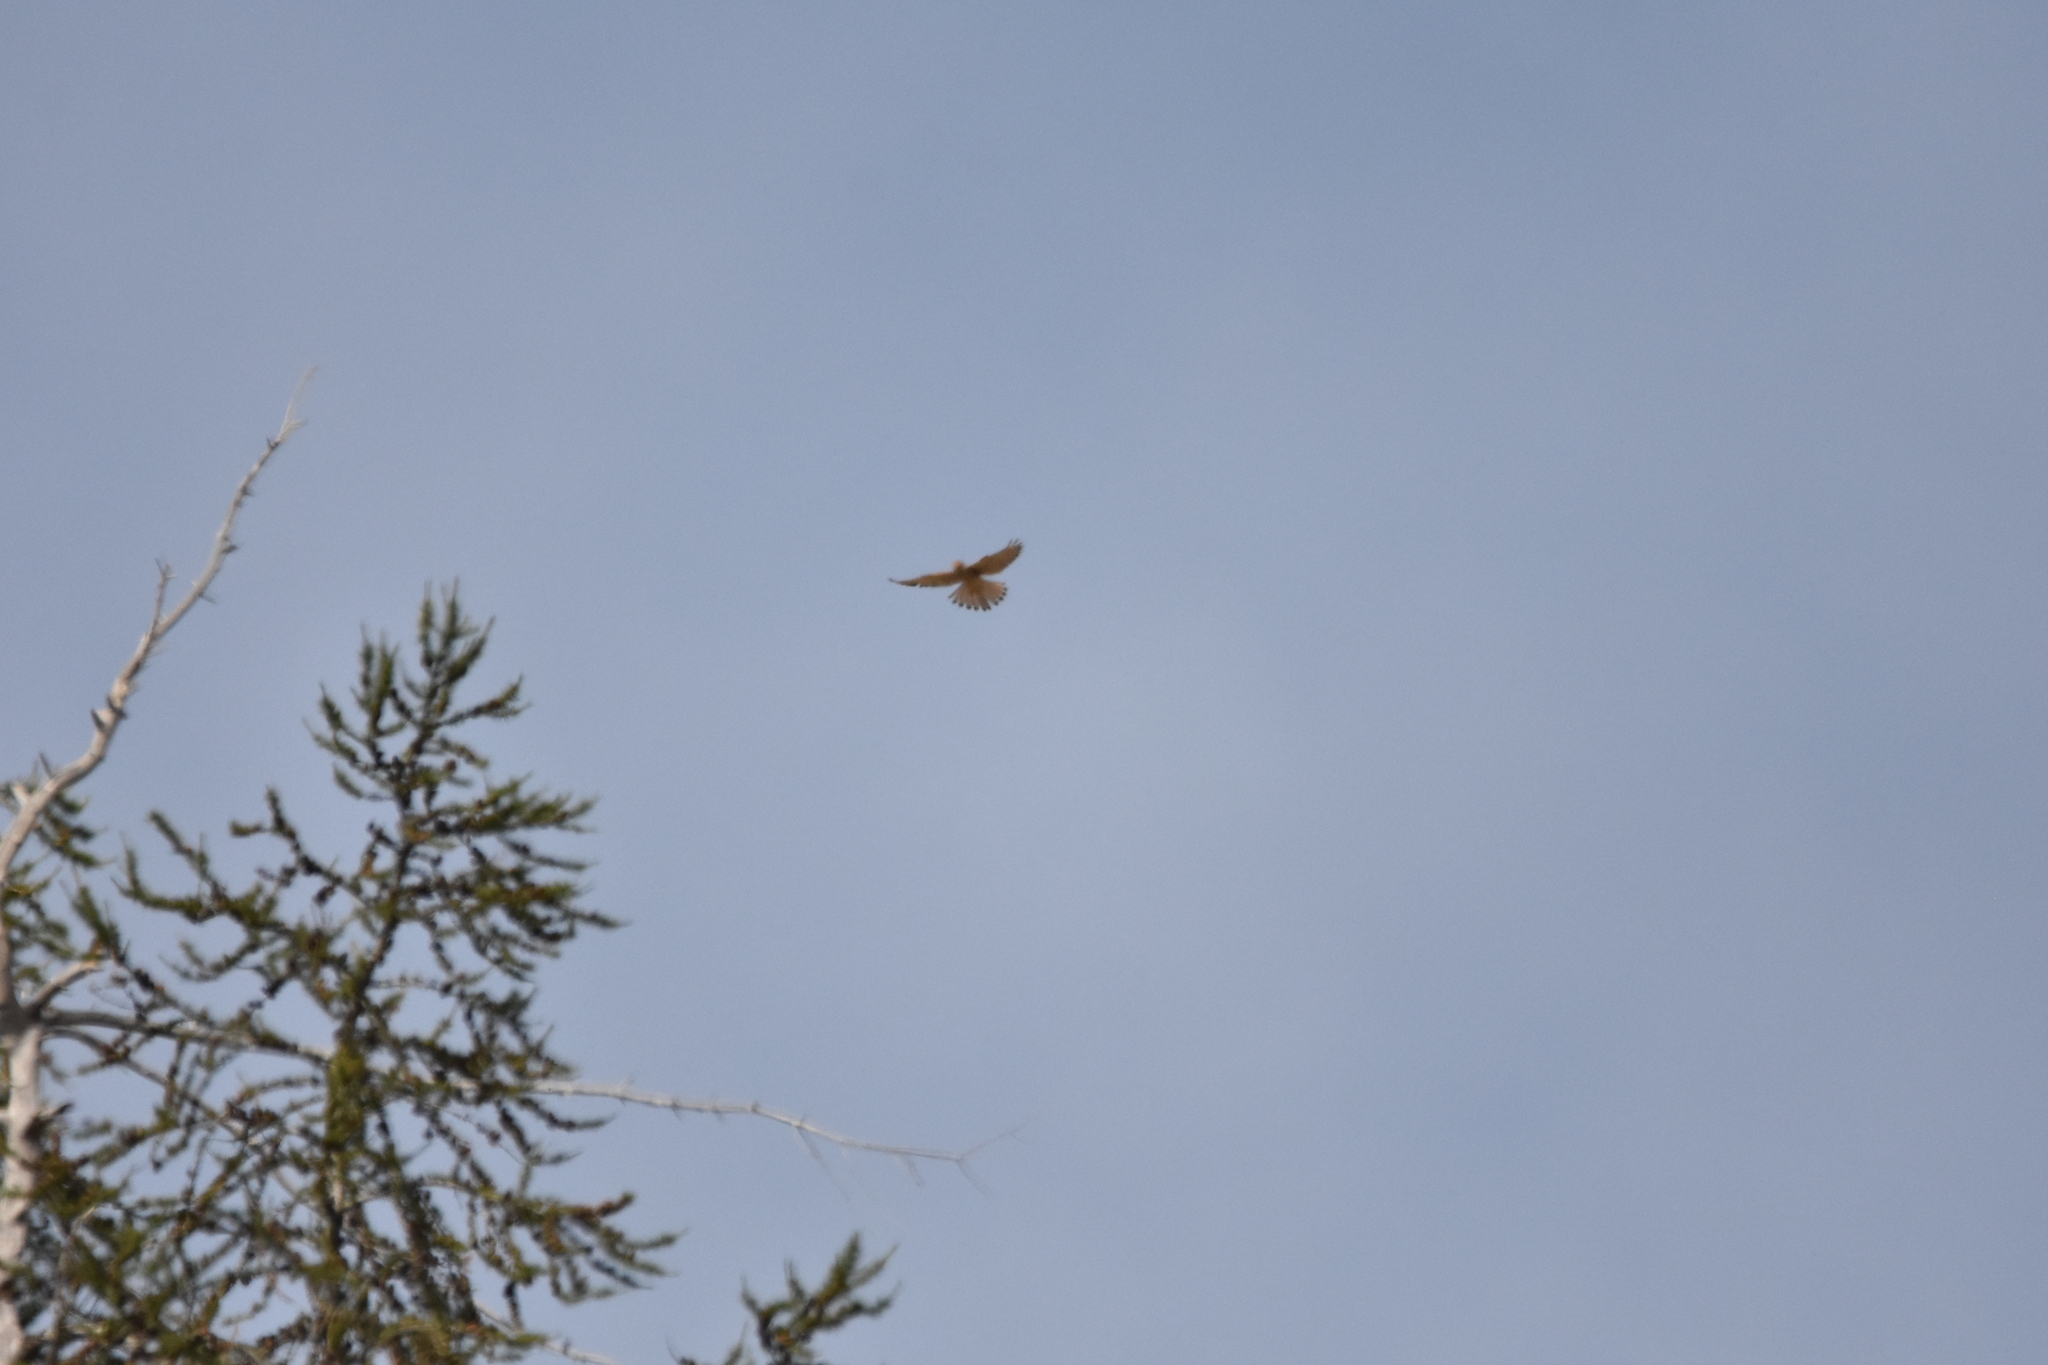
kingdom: Animalia
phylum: Chordata
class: Aves
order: Falconiformes
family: Falconidae
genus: Falco
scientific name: Falco tinnunculus
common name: Common kestrel
